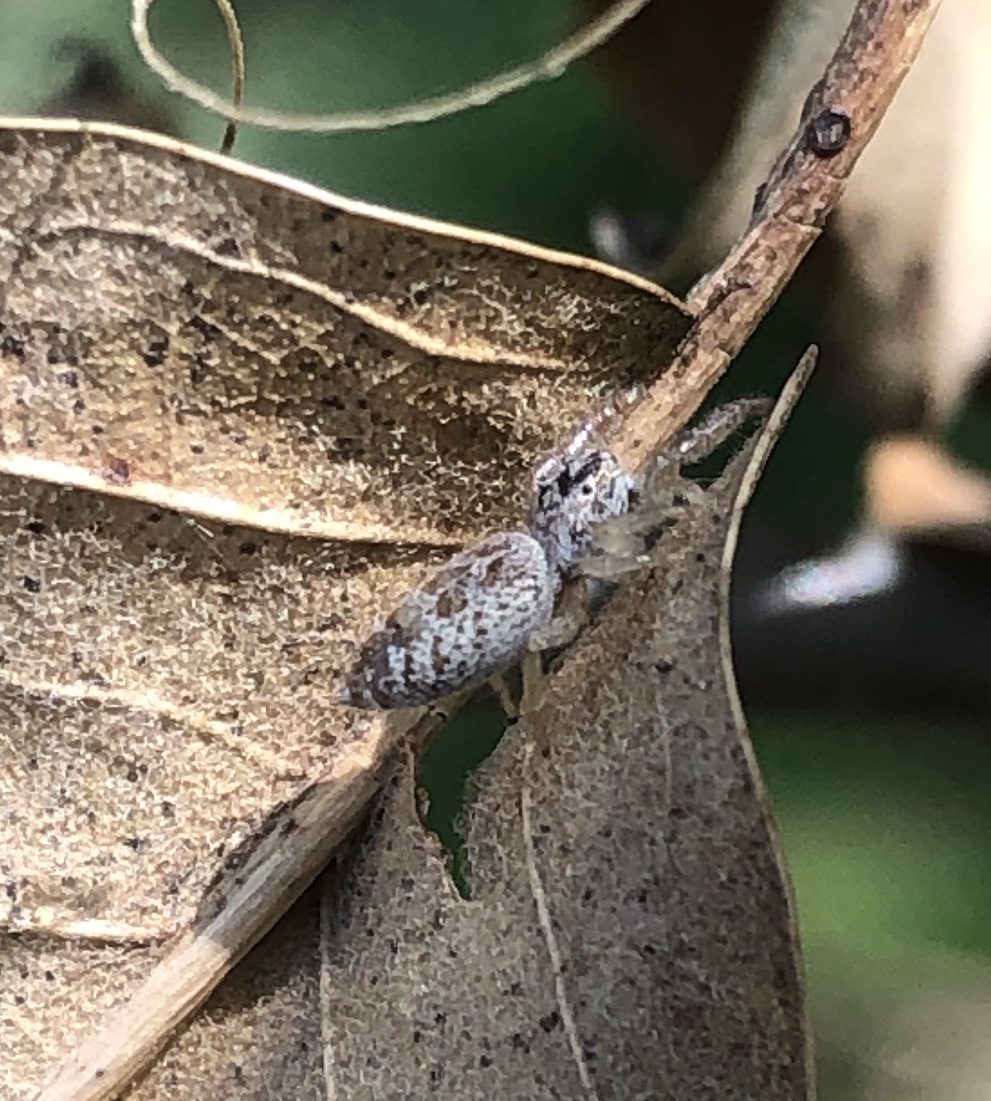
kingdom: Animalia
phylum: Arthropoda
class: Arachnida
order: Araneae
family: Salticidae
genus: Hentzia
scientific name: Hentzia mitrata
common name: White-jawed jumping spider
